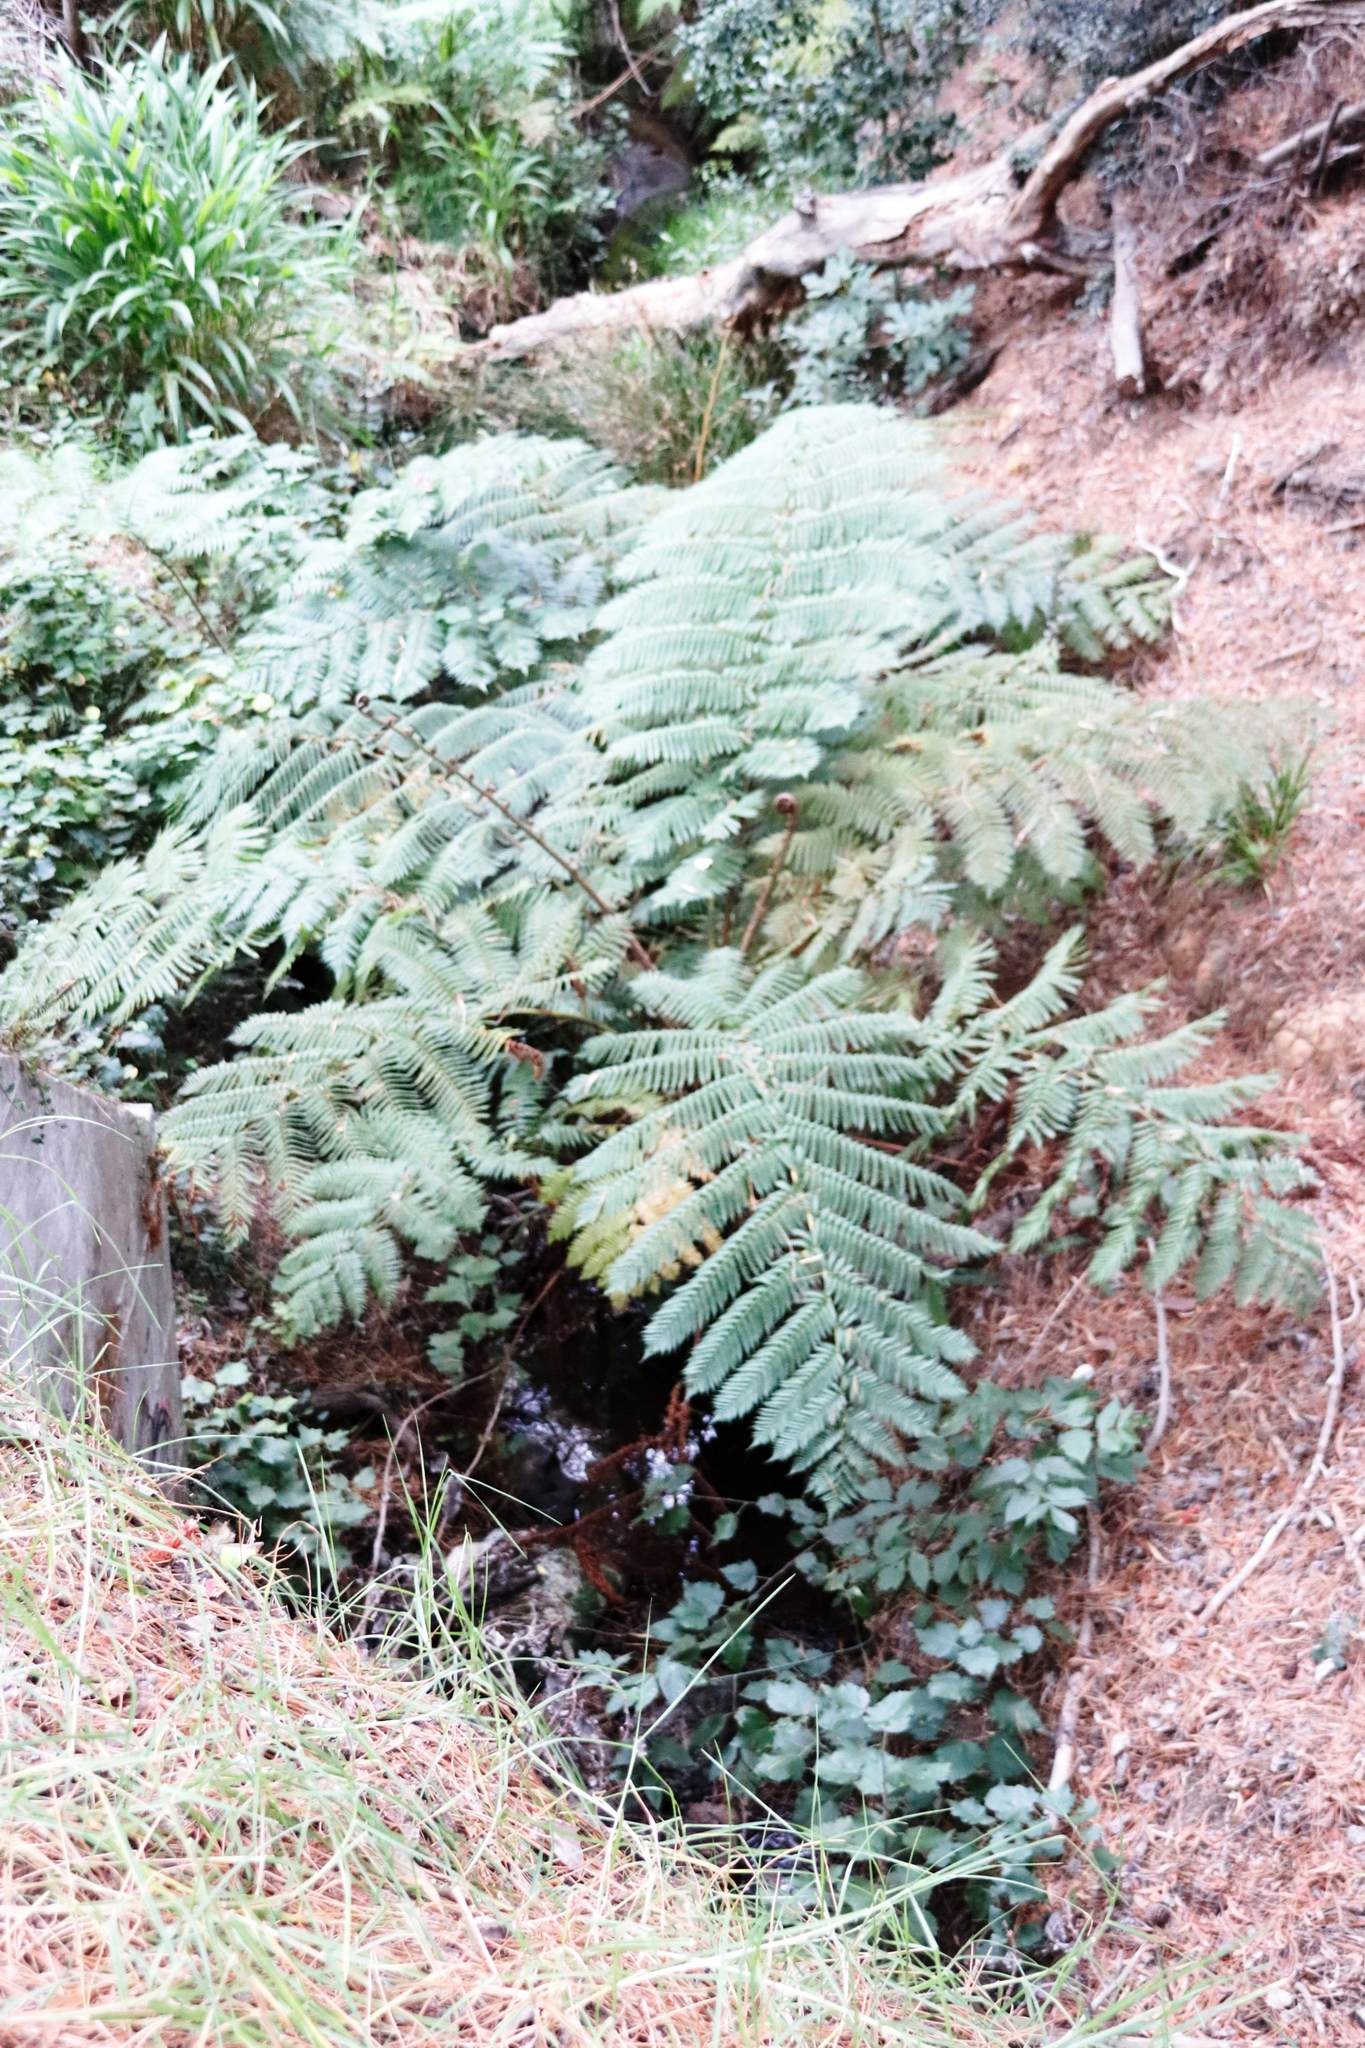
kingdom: Plantae
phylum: Tracheophyta
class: Polypodiopsida
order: Cyatheales
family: Cyatheaceae
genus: Sphaeropteris
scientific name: Sphaeropteris cooperi
